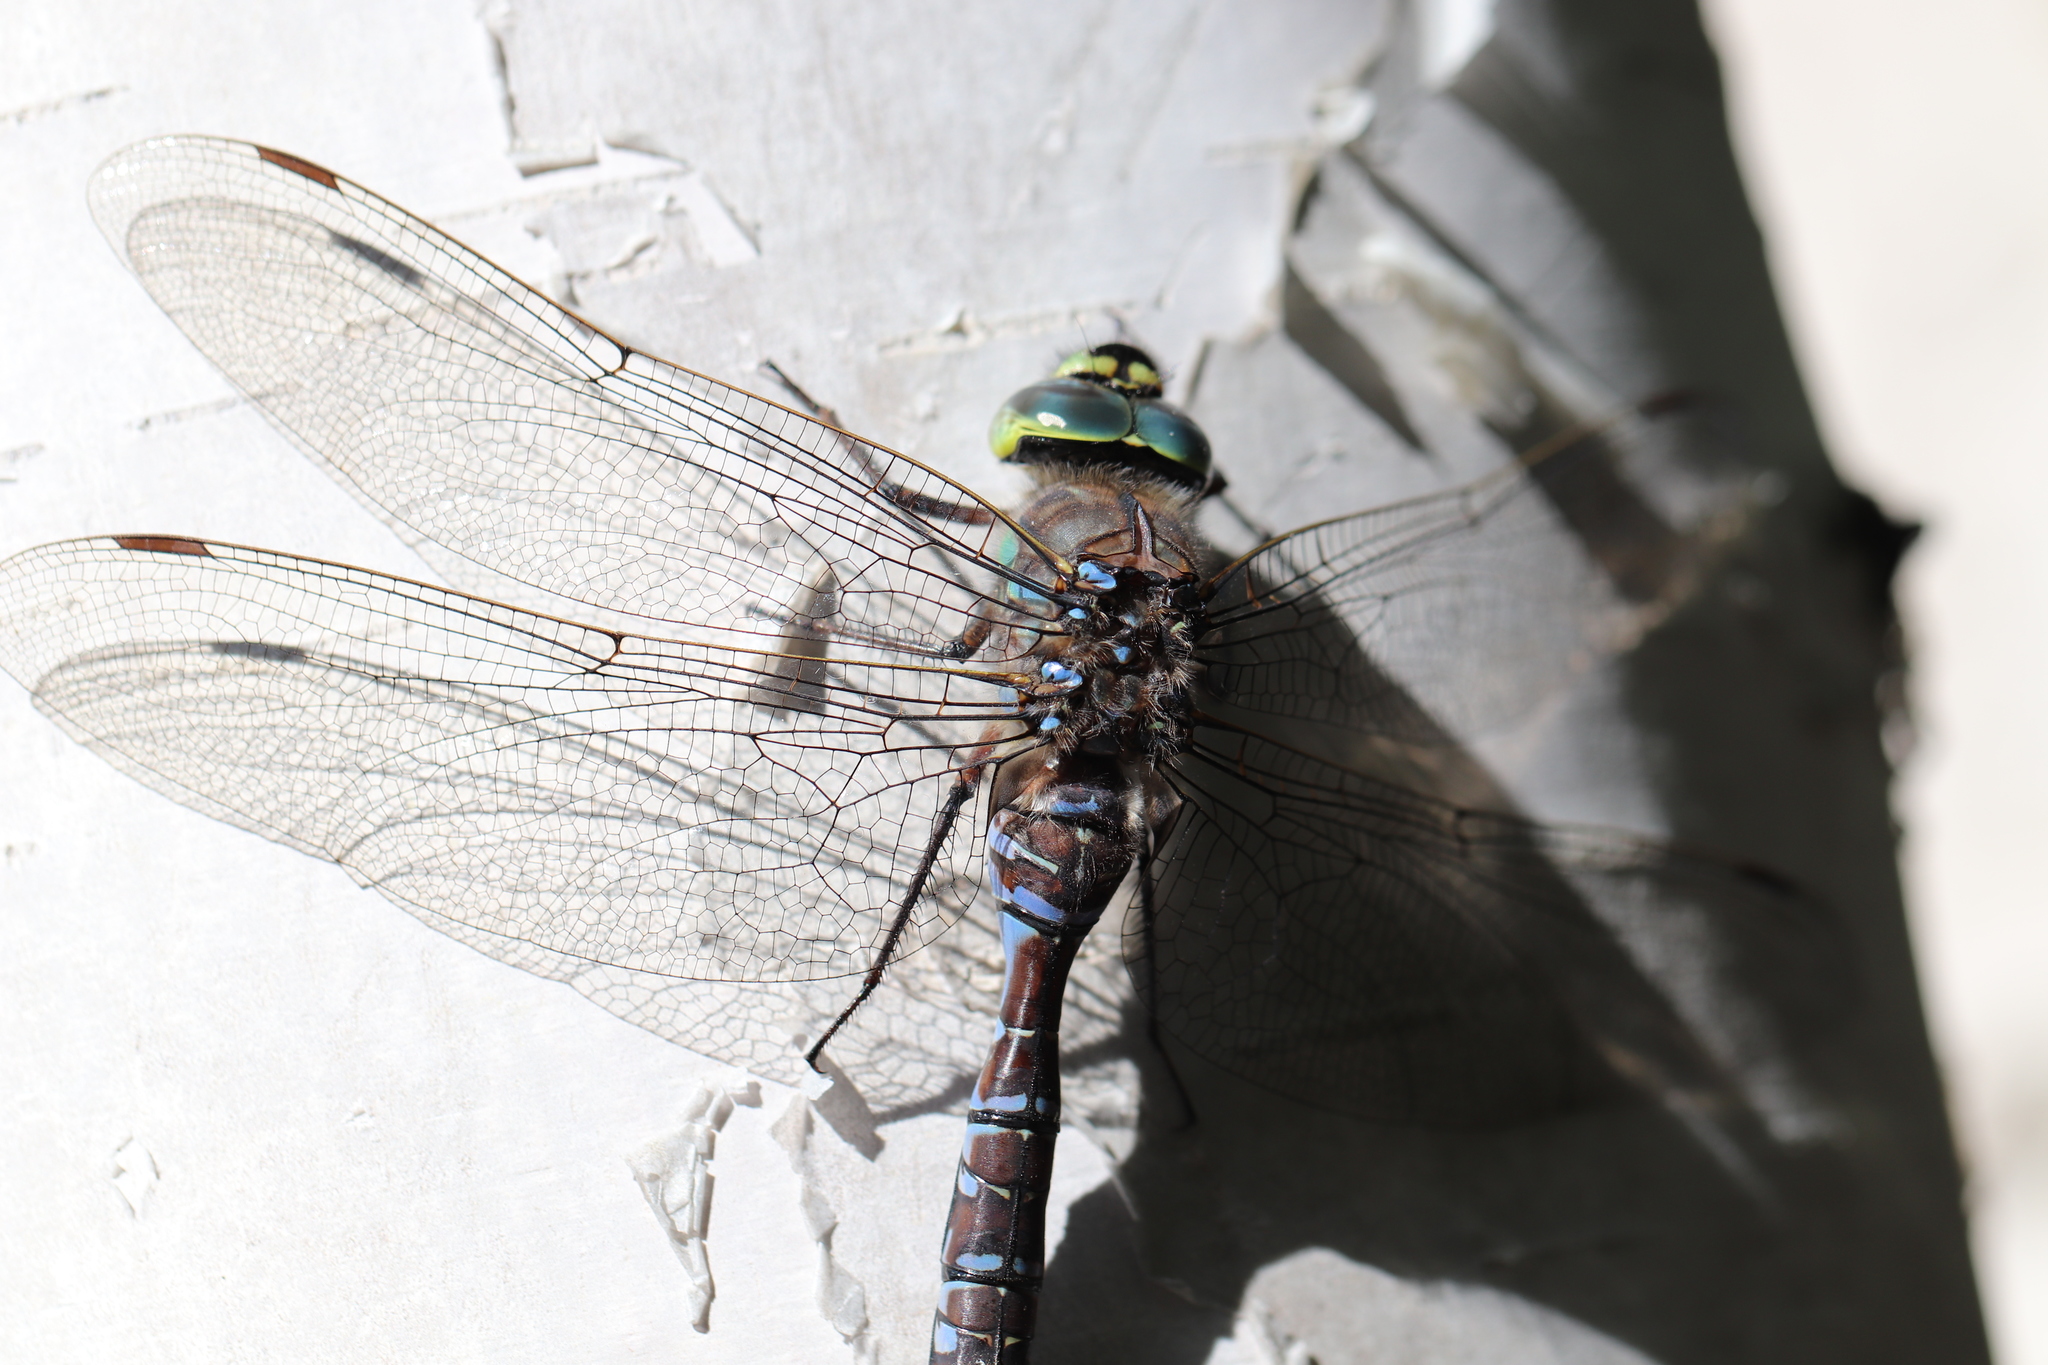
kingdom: Animalia
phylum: Arthropoda
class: Insecta
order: Odonata
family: Aeshnidae
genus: Aeshna
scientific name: Aeshna eremita
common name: Lake darner
